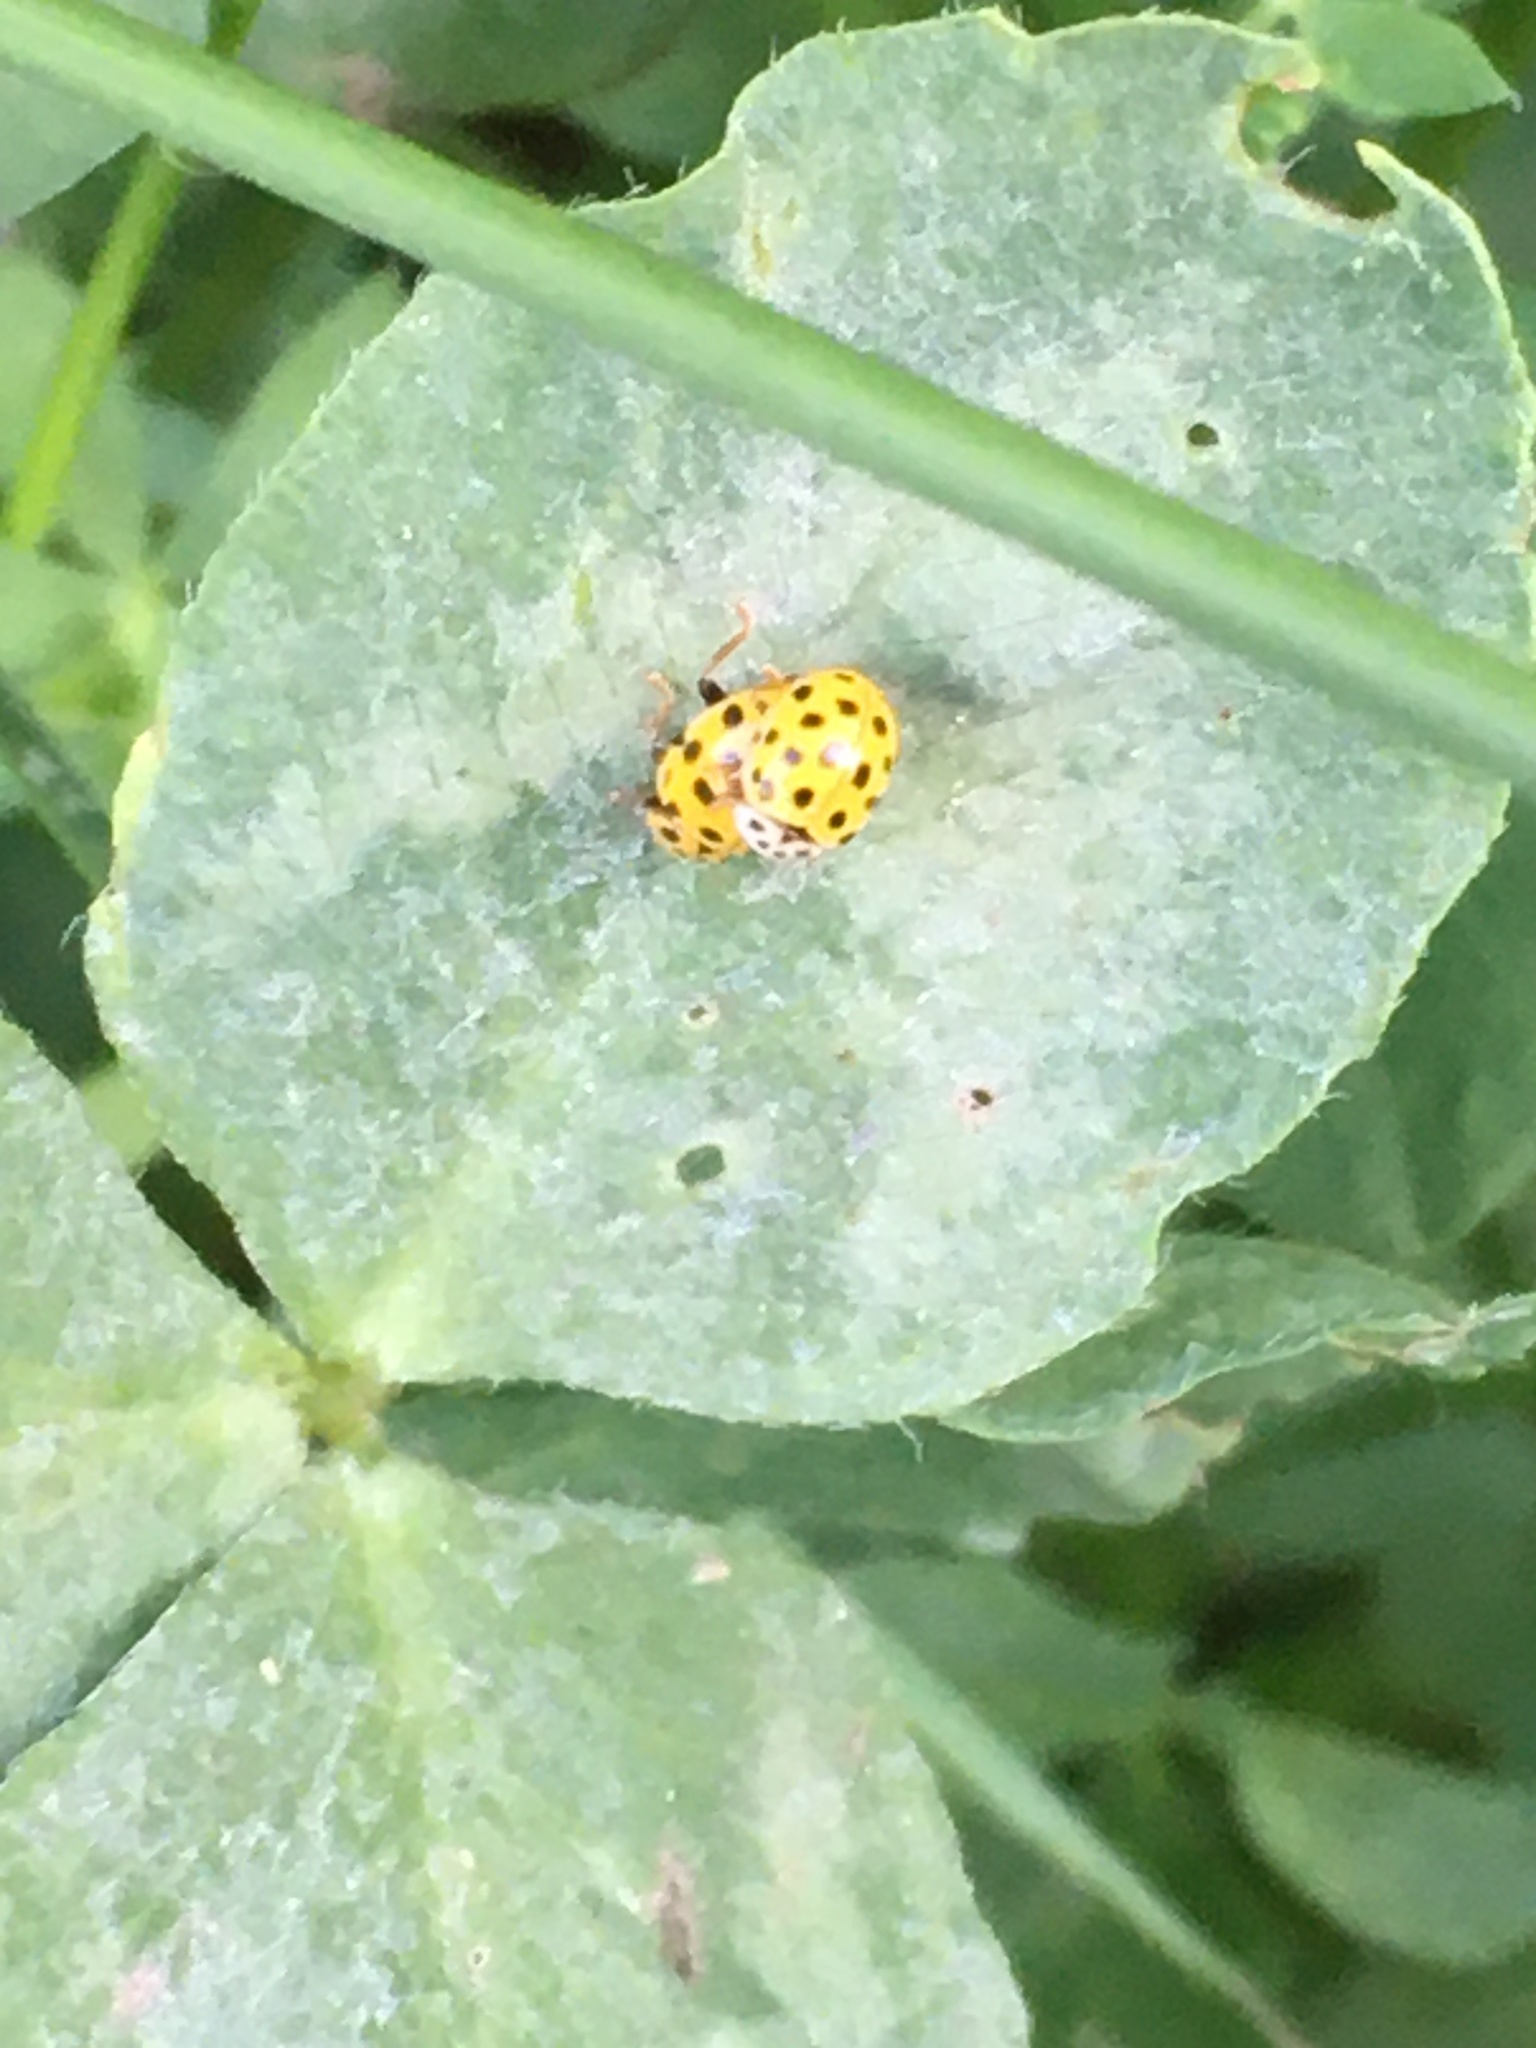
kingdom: Animalia
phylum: Arthropoda
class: Insecta
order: Coleoptera
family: Coccinellidae
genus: Psyllobora
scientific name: Psyllobora vigintiduopunctata
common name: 22-spot ladybird
